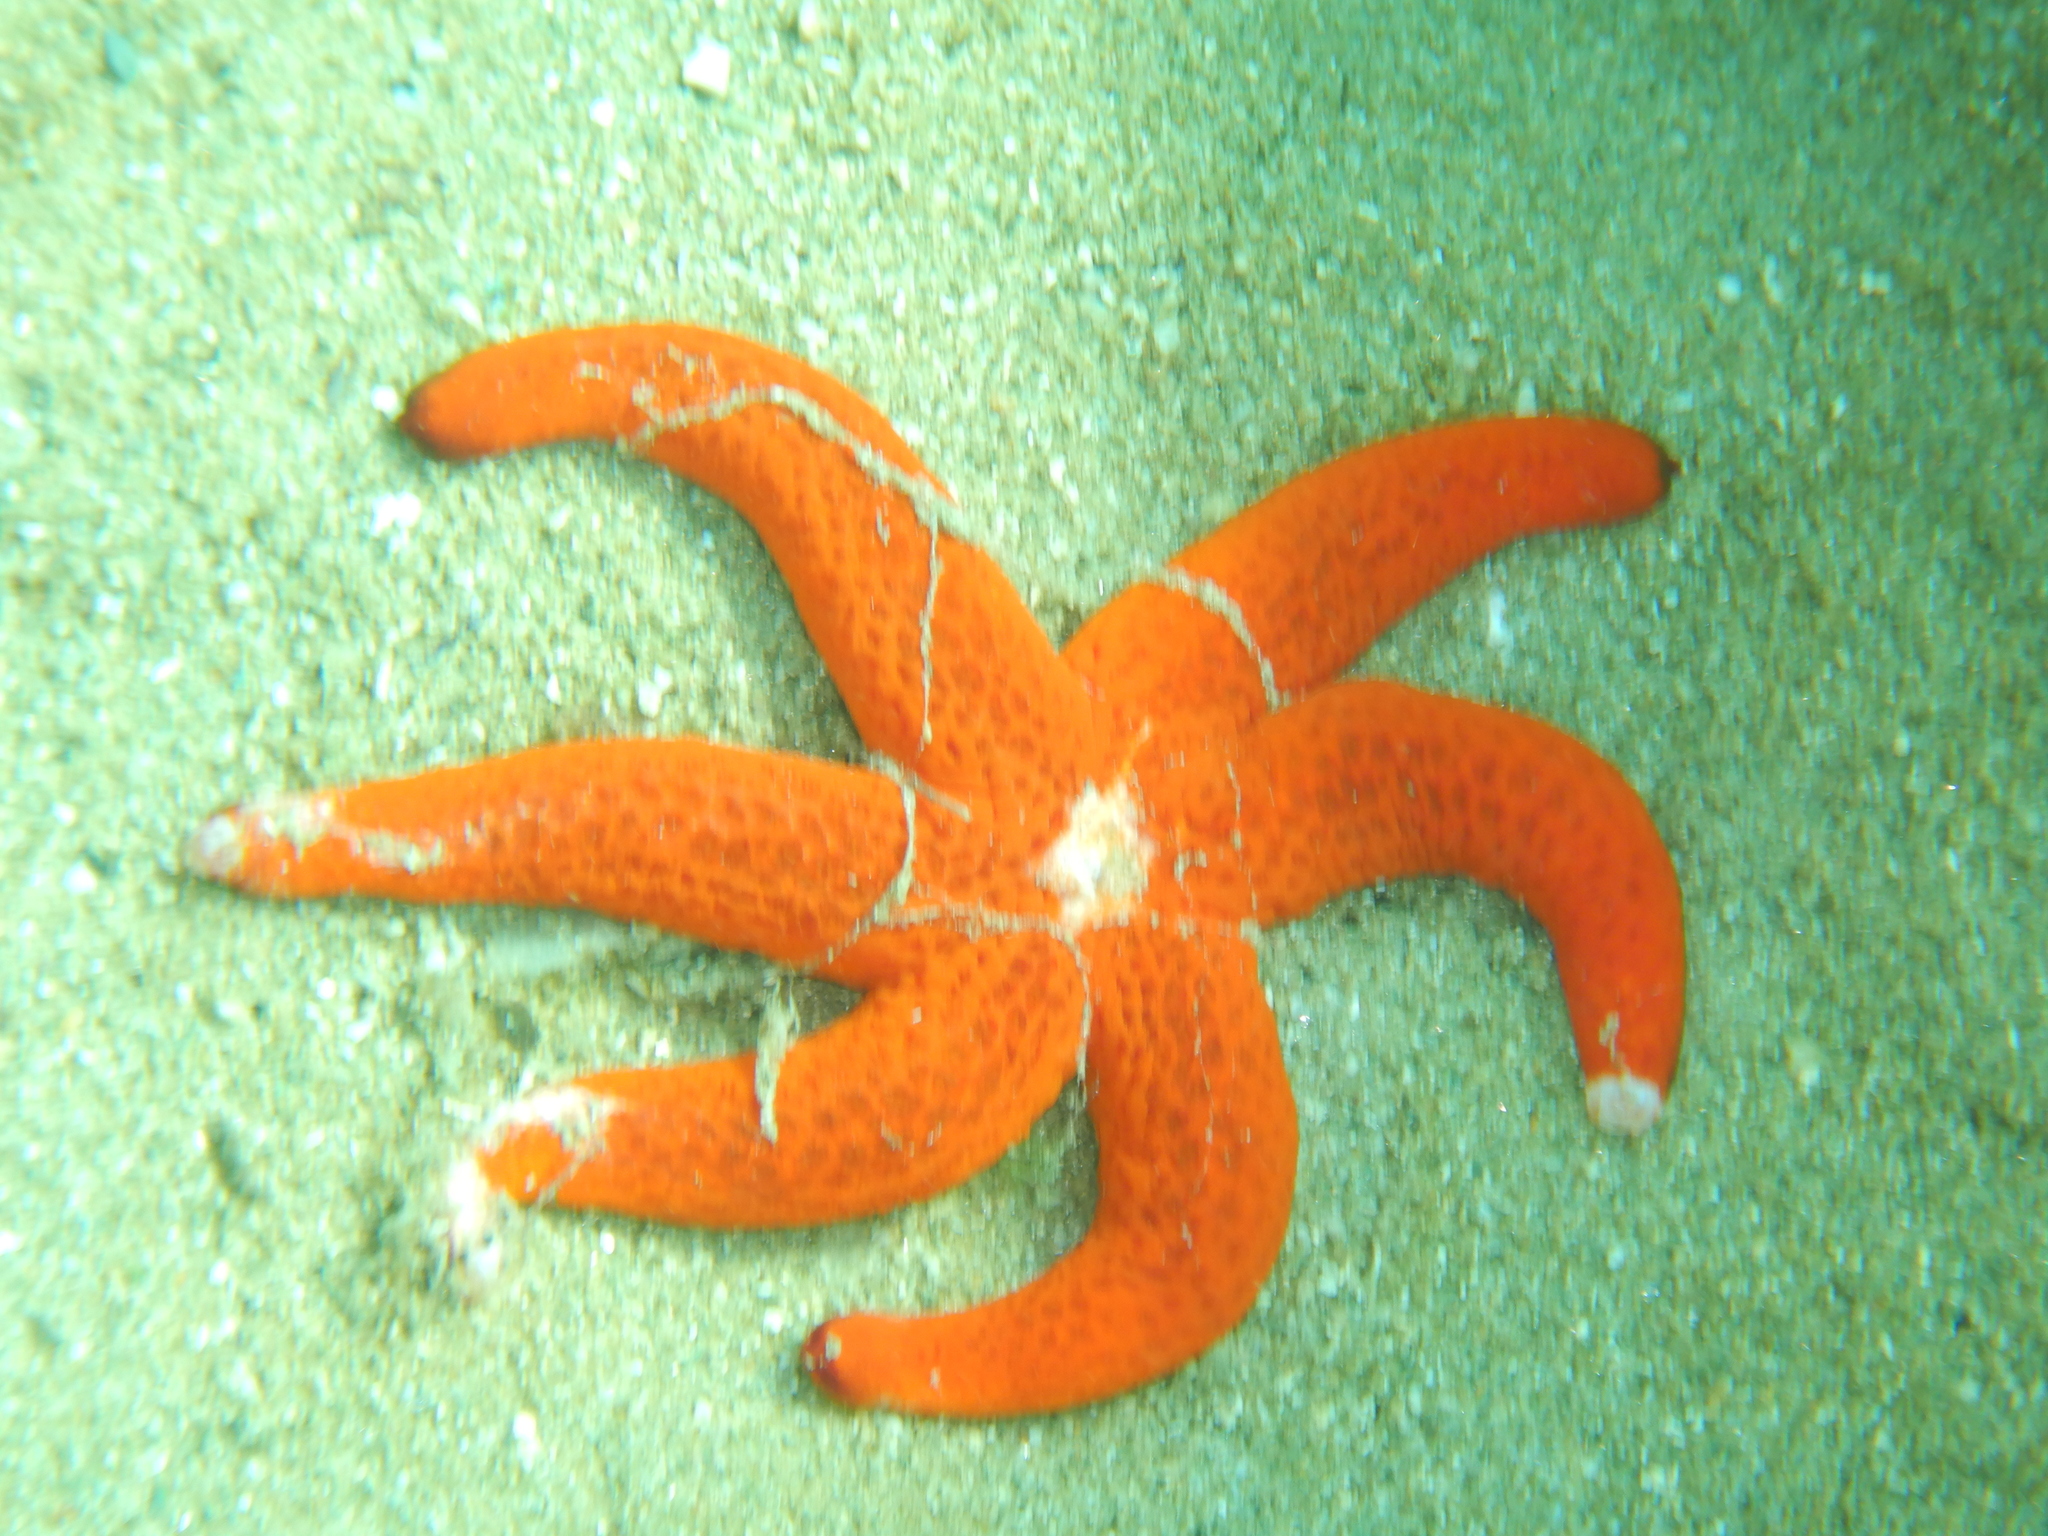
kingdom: Animalia
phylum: Echinodermata
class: Asteroidea
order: Spinulosida
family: Echinasteridae
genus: Echinaster
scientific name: Echinaster sepositus
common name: Red starfish
